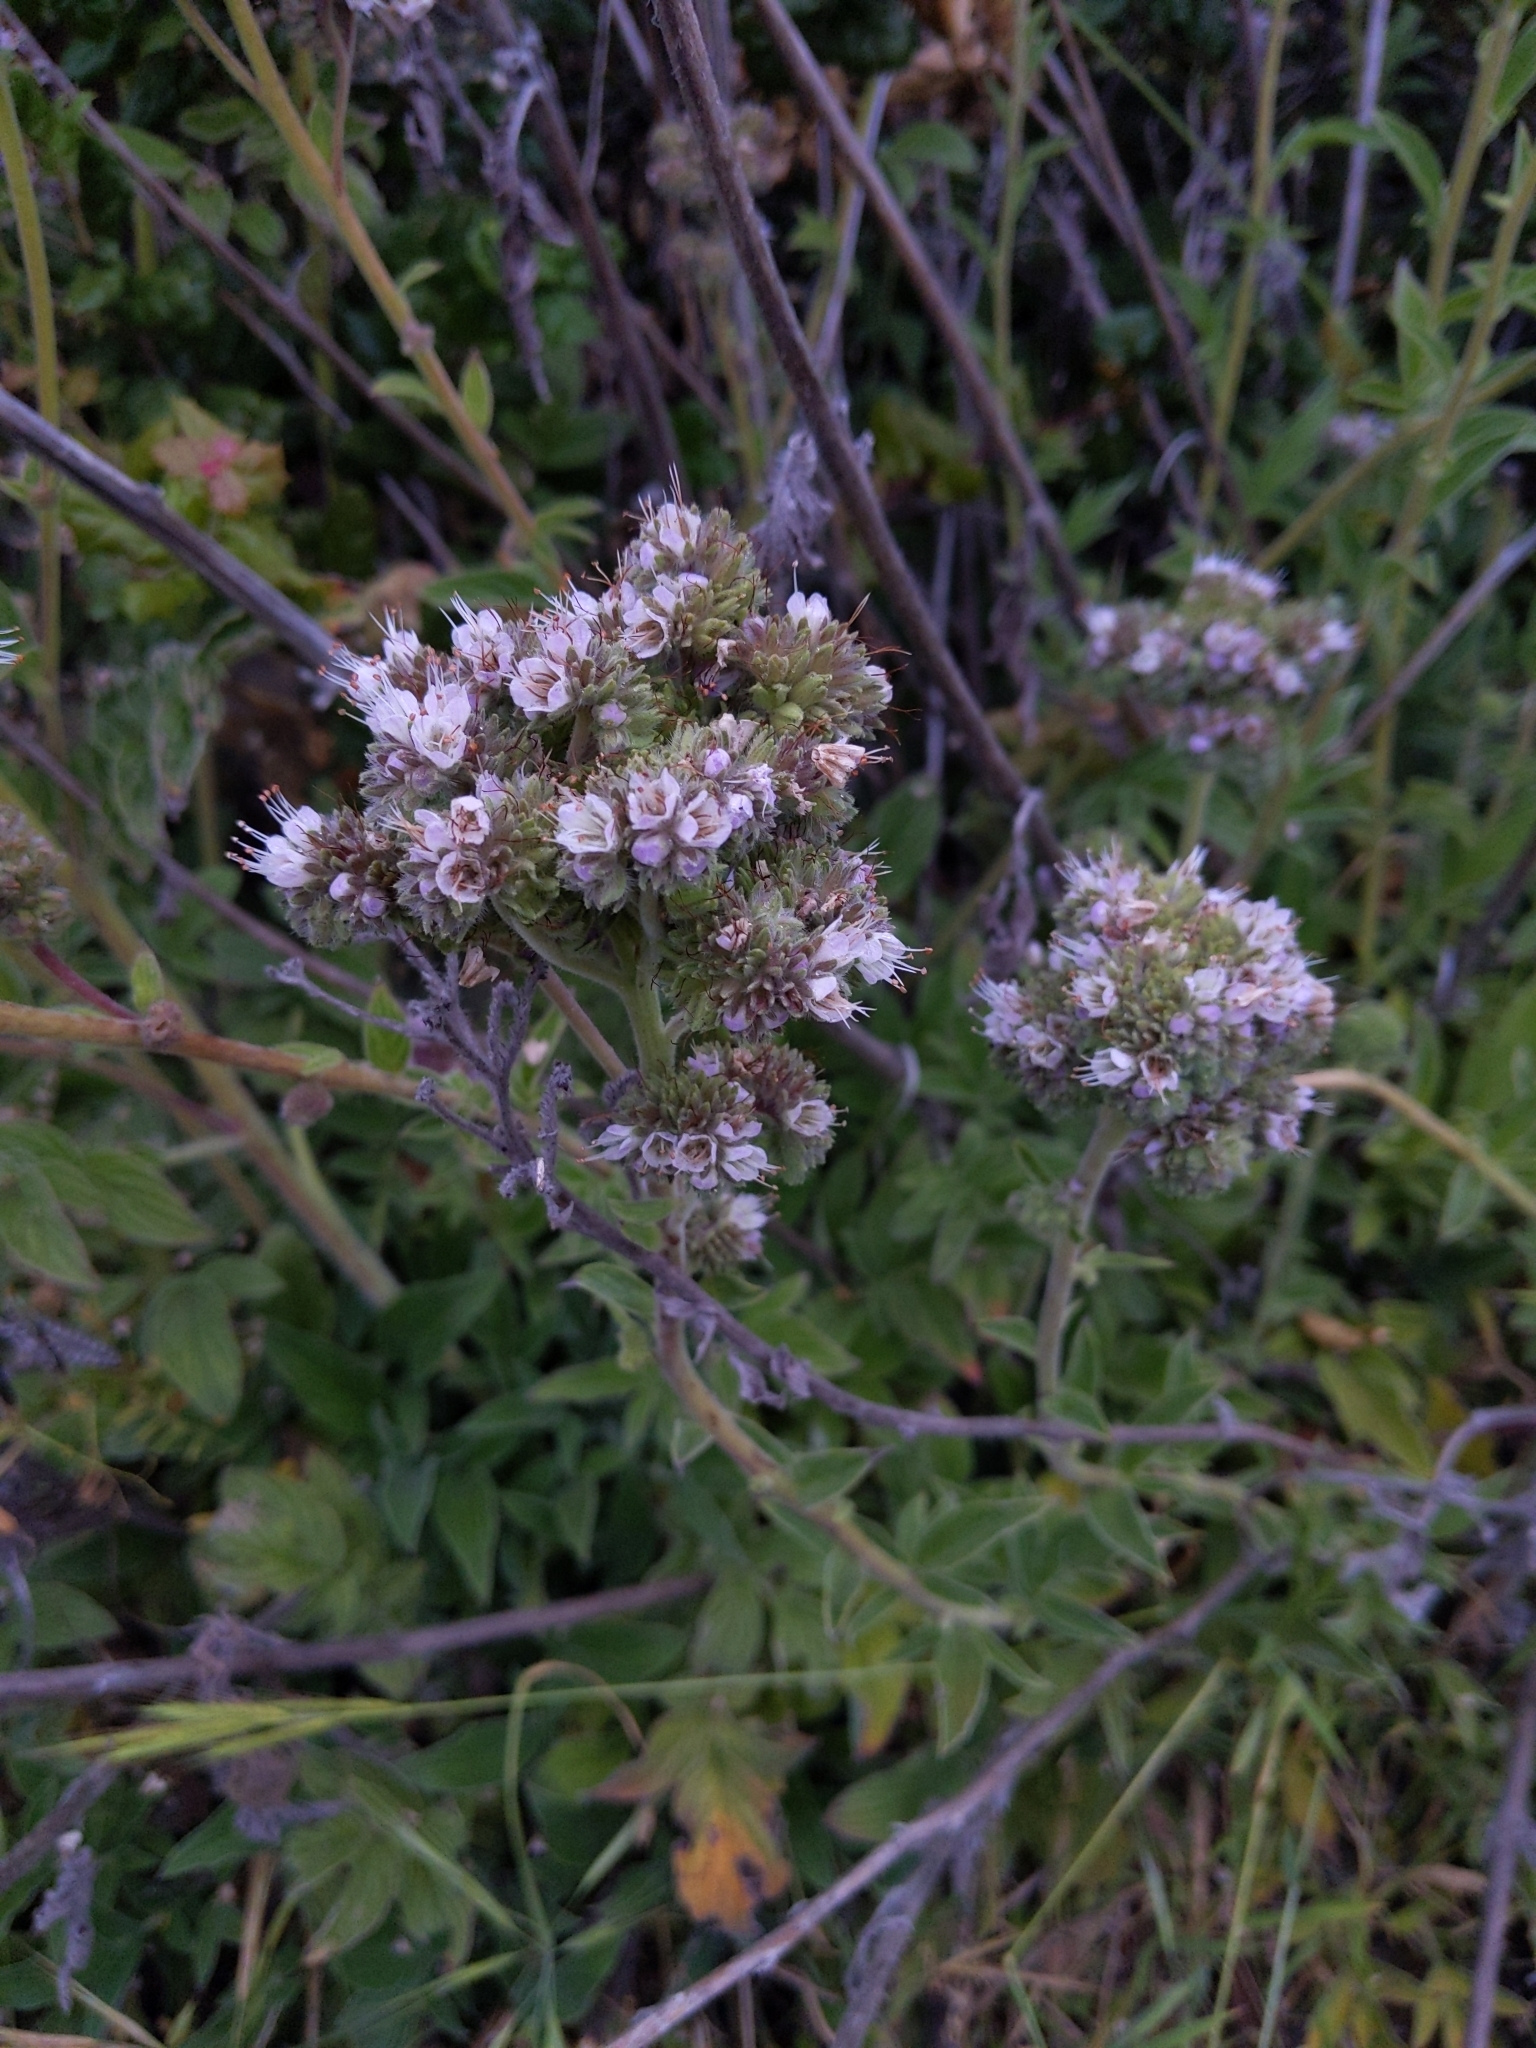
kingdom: Plantae
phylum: Tracheophyta
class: Magnoliopsida
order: Boraginales
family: Hydrophyllaceae
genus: Phacelia
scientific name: Phacelia californica
